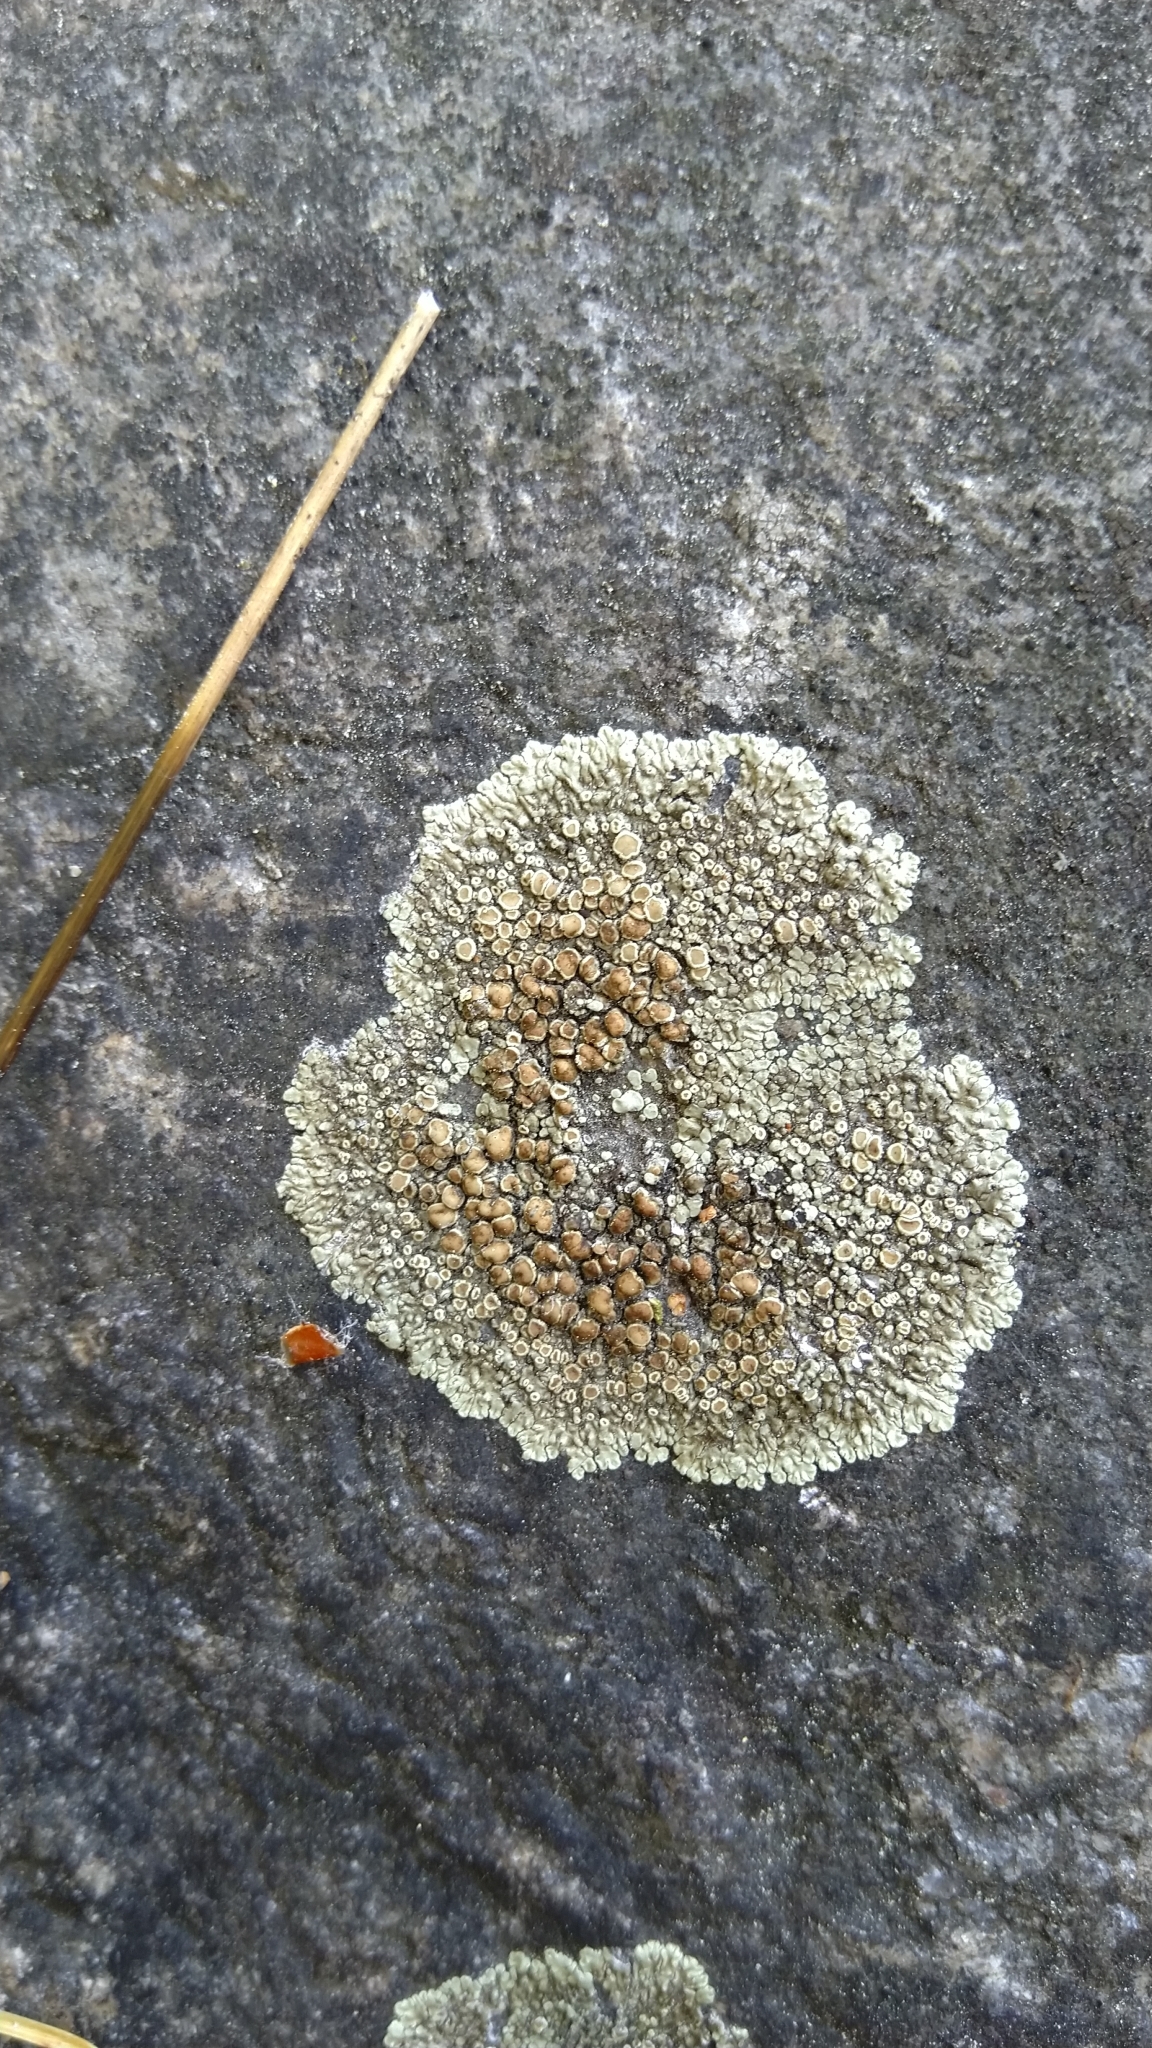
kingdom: Fungi
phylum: Ascomycota
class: Lecanoromycetes
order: Lecanorales
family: Lecanoraceae
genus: Protoparmeliopsis
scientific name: Protoparmeliopsis muralis
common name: Stonewall rim lichen
